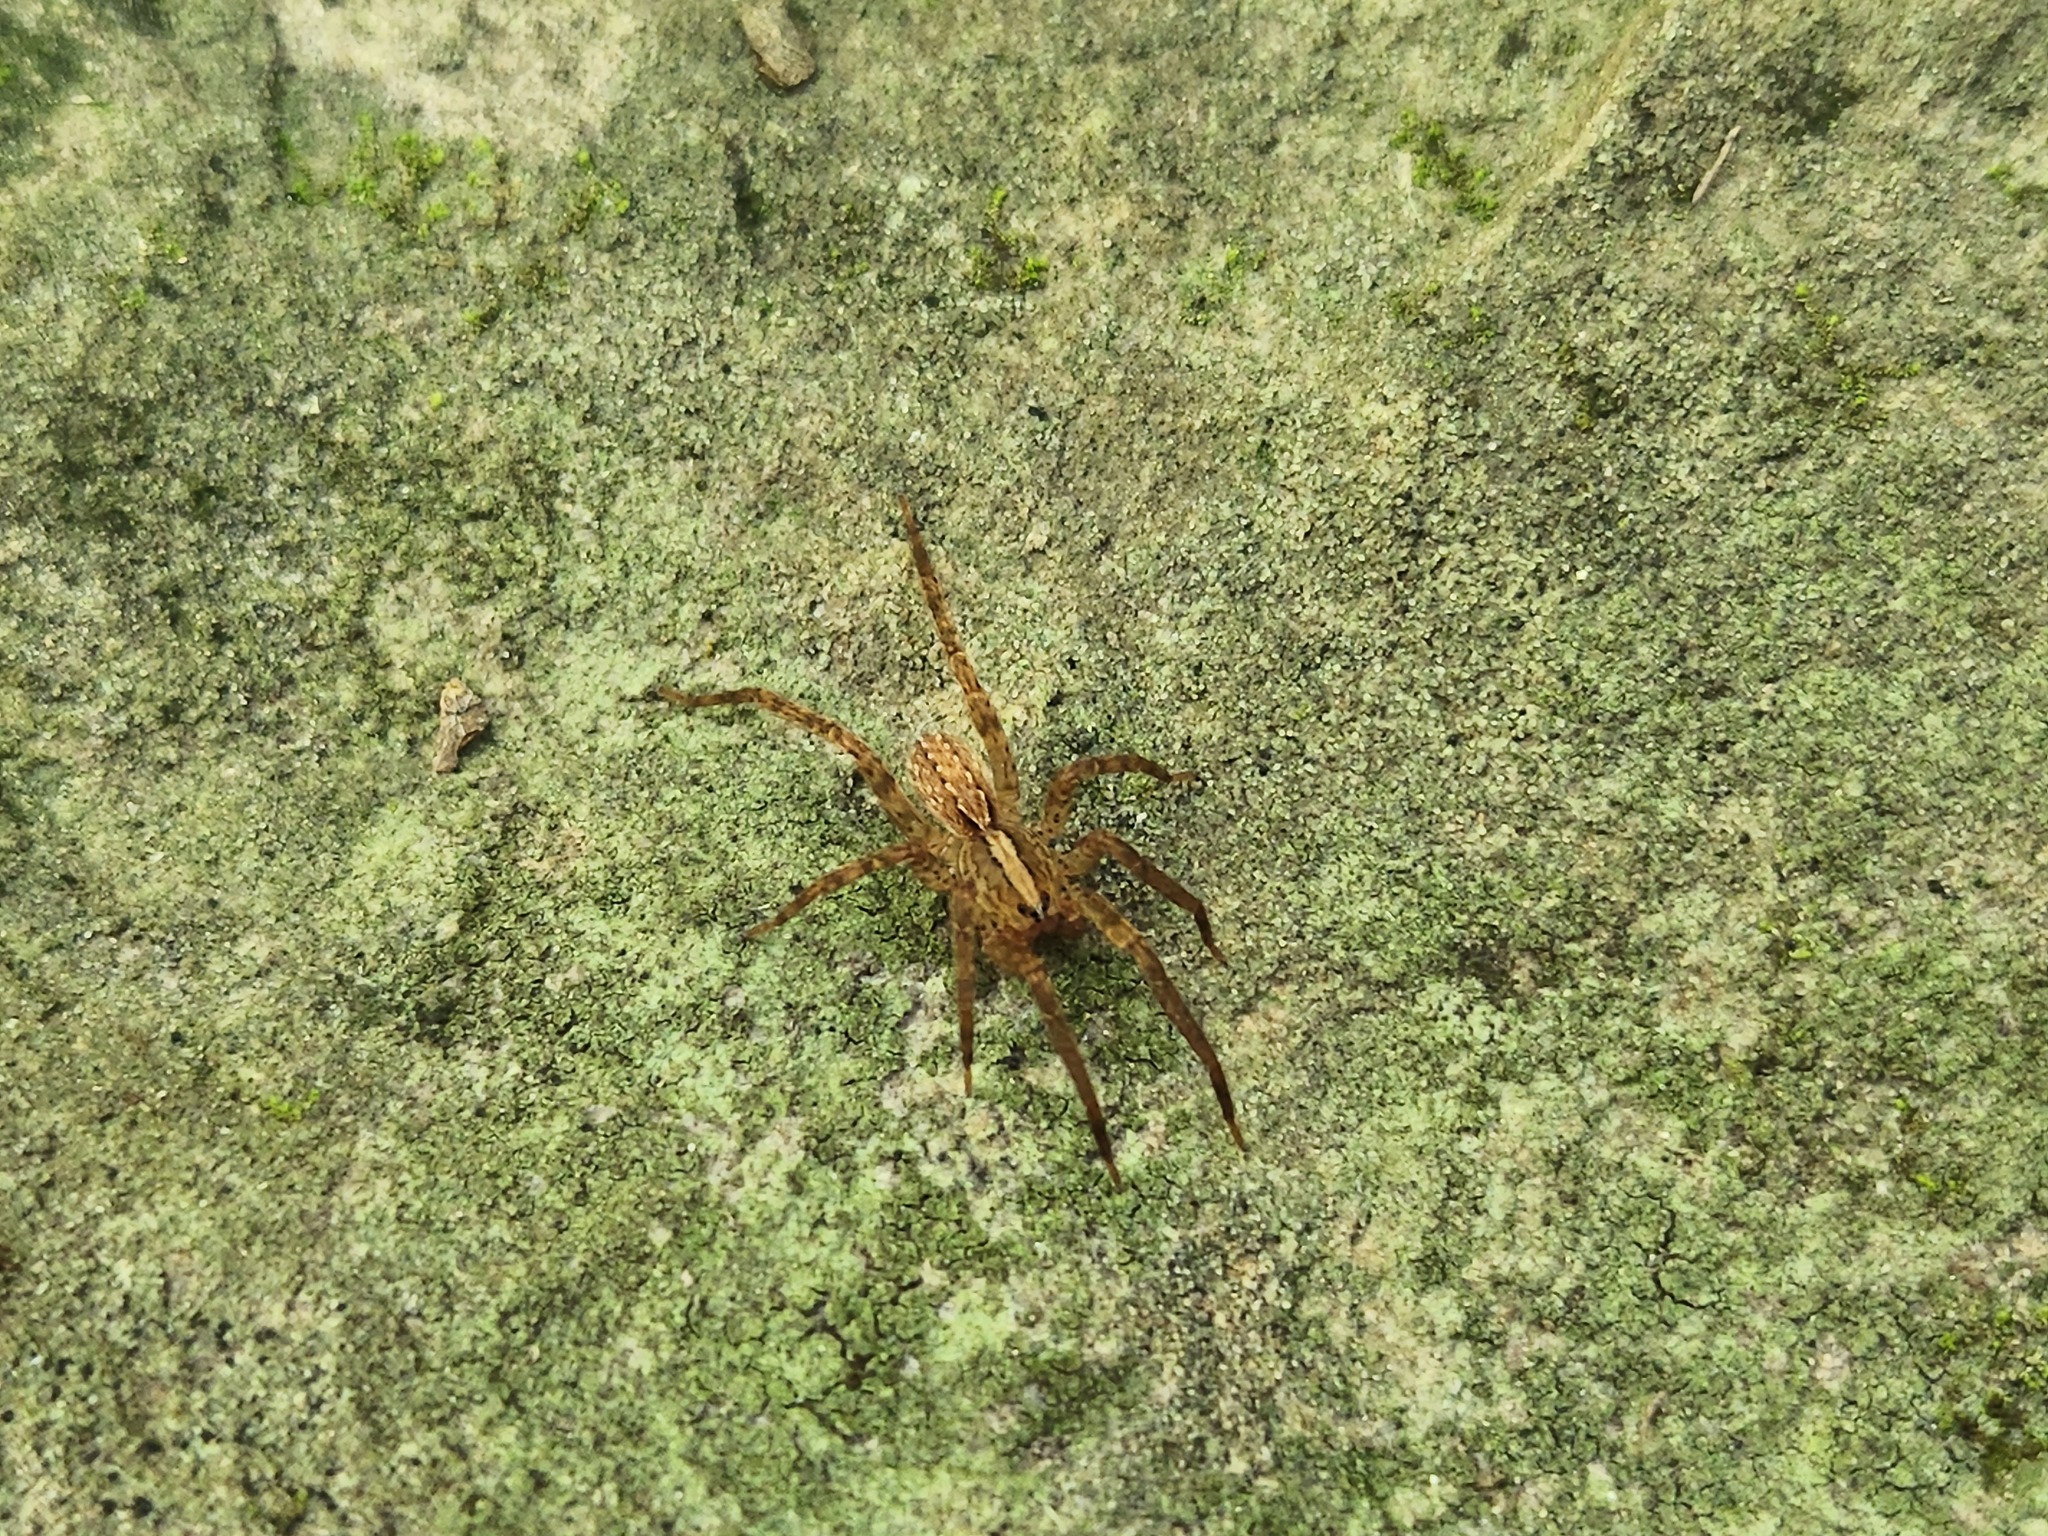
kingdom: Animalia
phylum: Arthropoda
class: Arachnida
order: Araneae
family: Ctenidae
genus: Anahita
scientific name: Anahita punctulata
